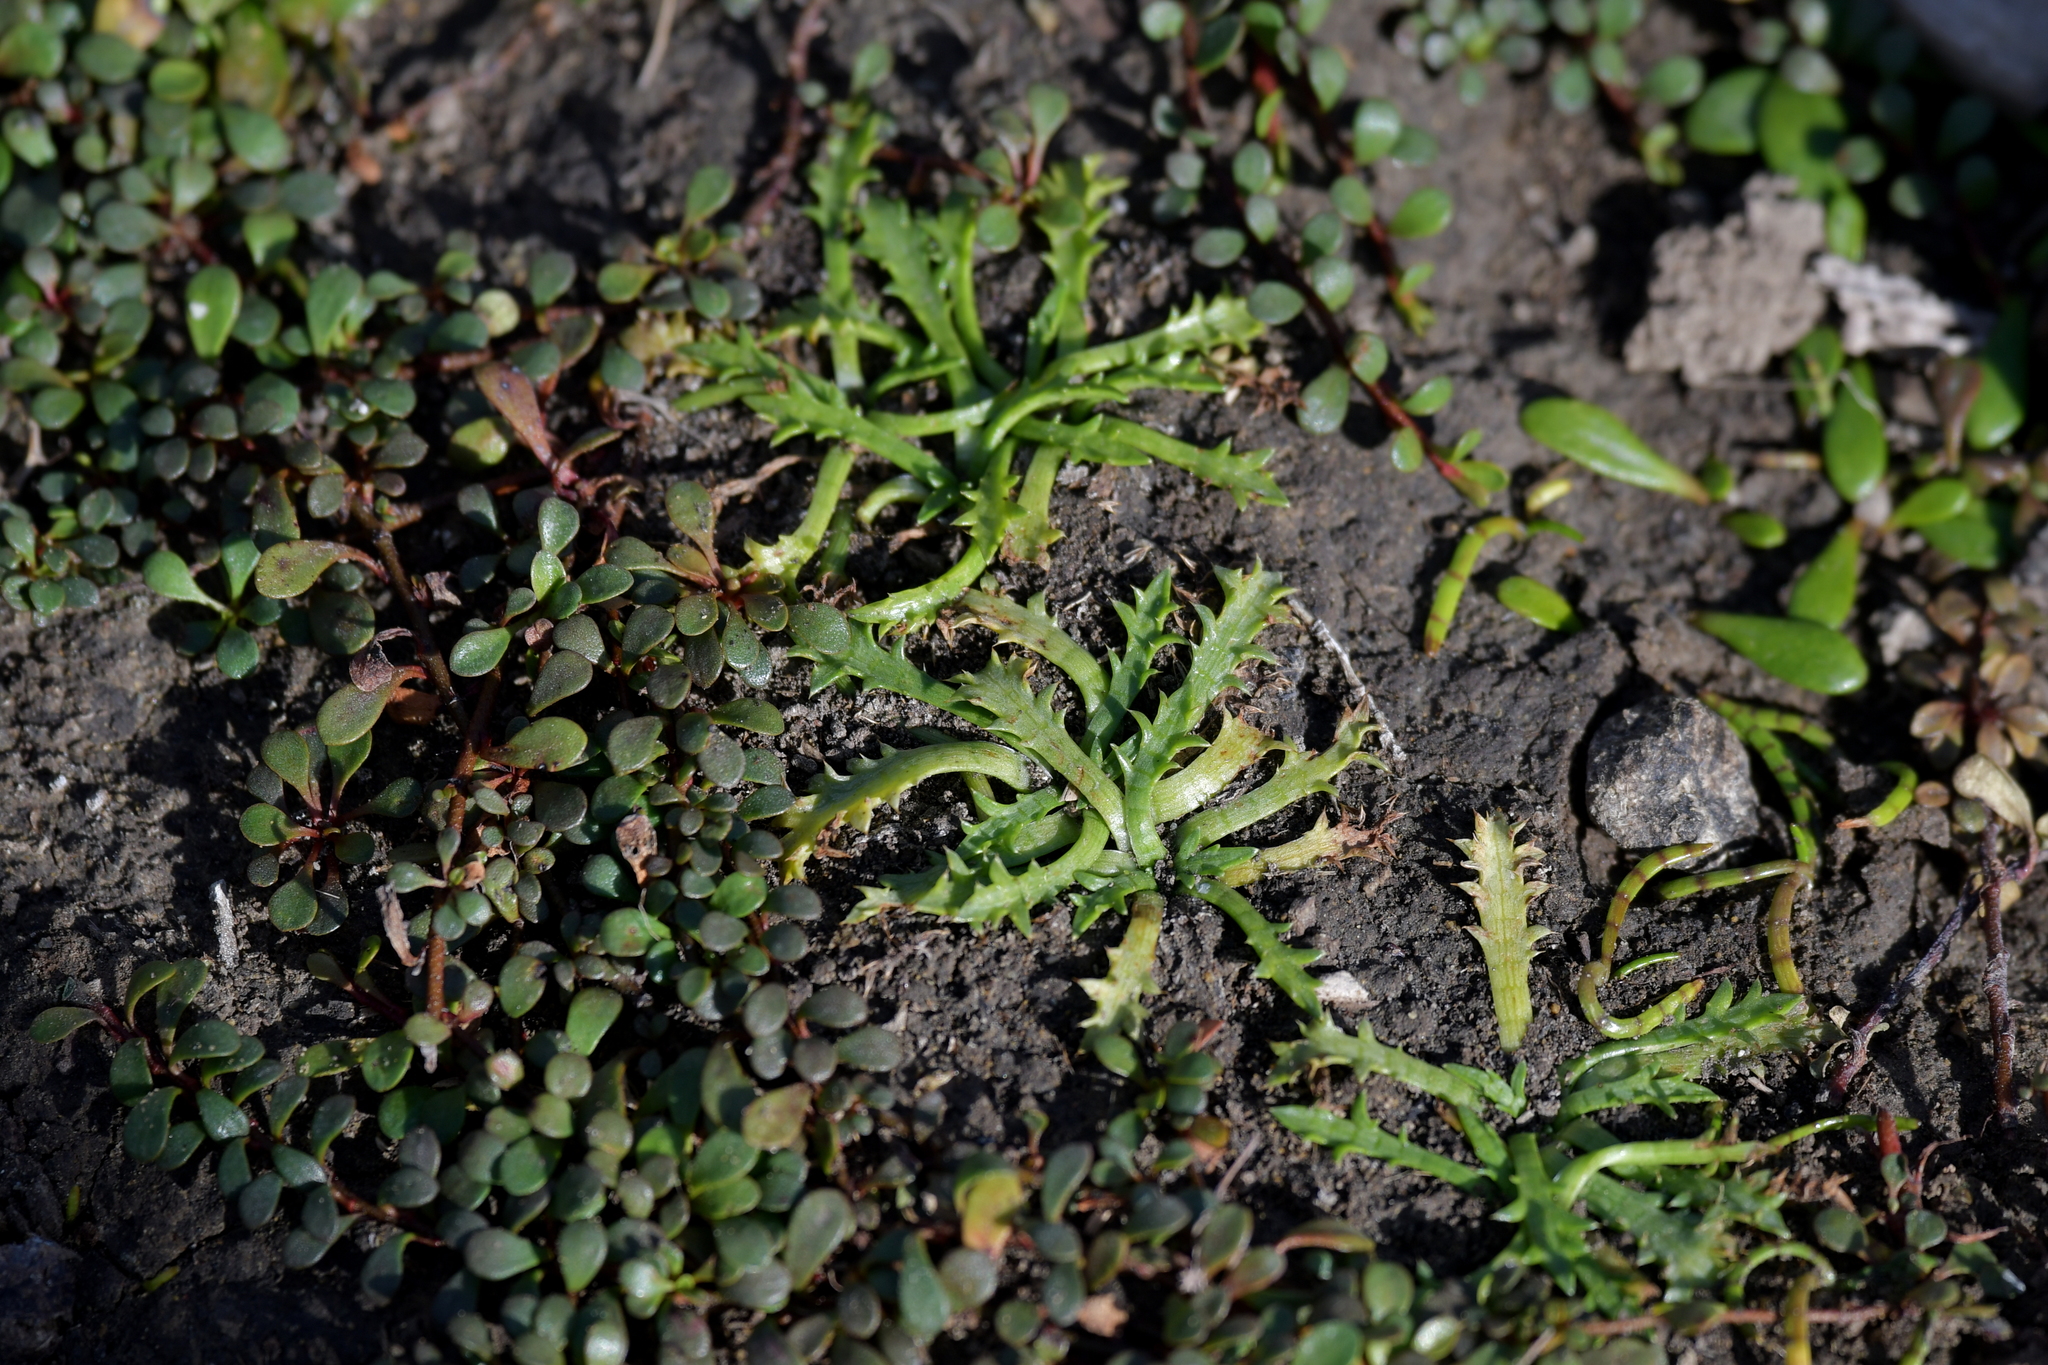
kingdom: Plantae
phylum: Tracheophyta
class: Magnoliopsida
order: Apiales
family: Apiaceae
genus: Eryngium
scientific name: Eryngium vesiculosum
